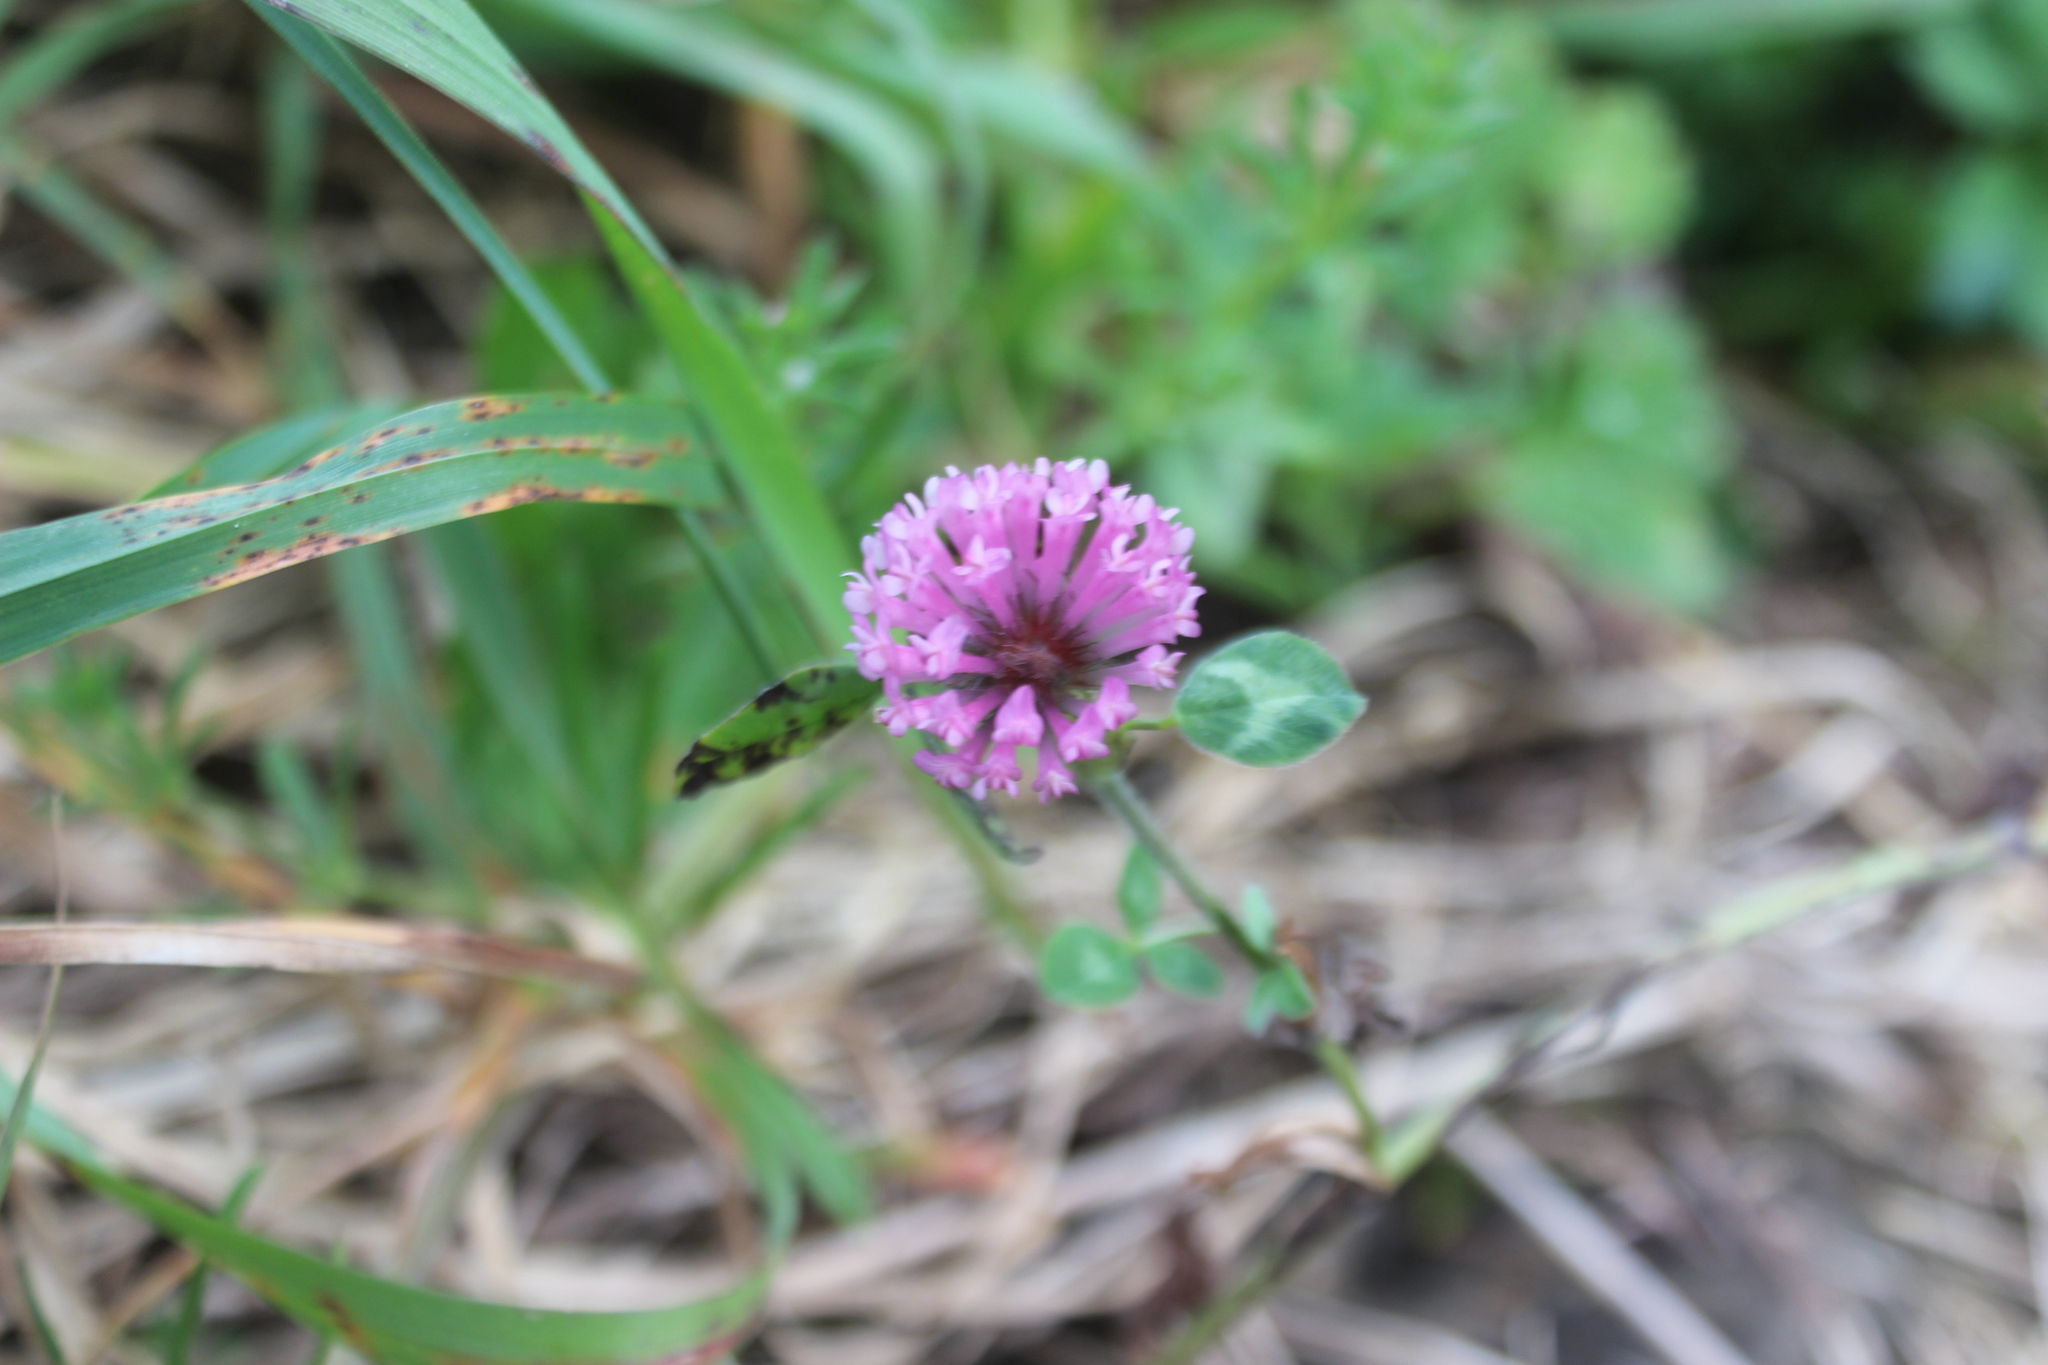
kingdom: Plantae
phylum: Tracheophyta
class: Magnoliopsida
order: Fabales
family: Fabaceae
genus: Trifolium
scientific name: Trifolium pratense
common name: Red clover
